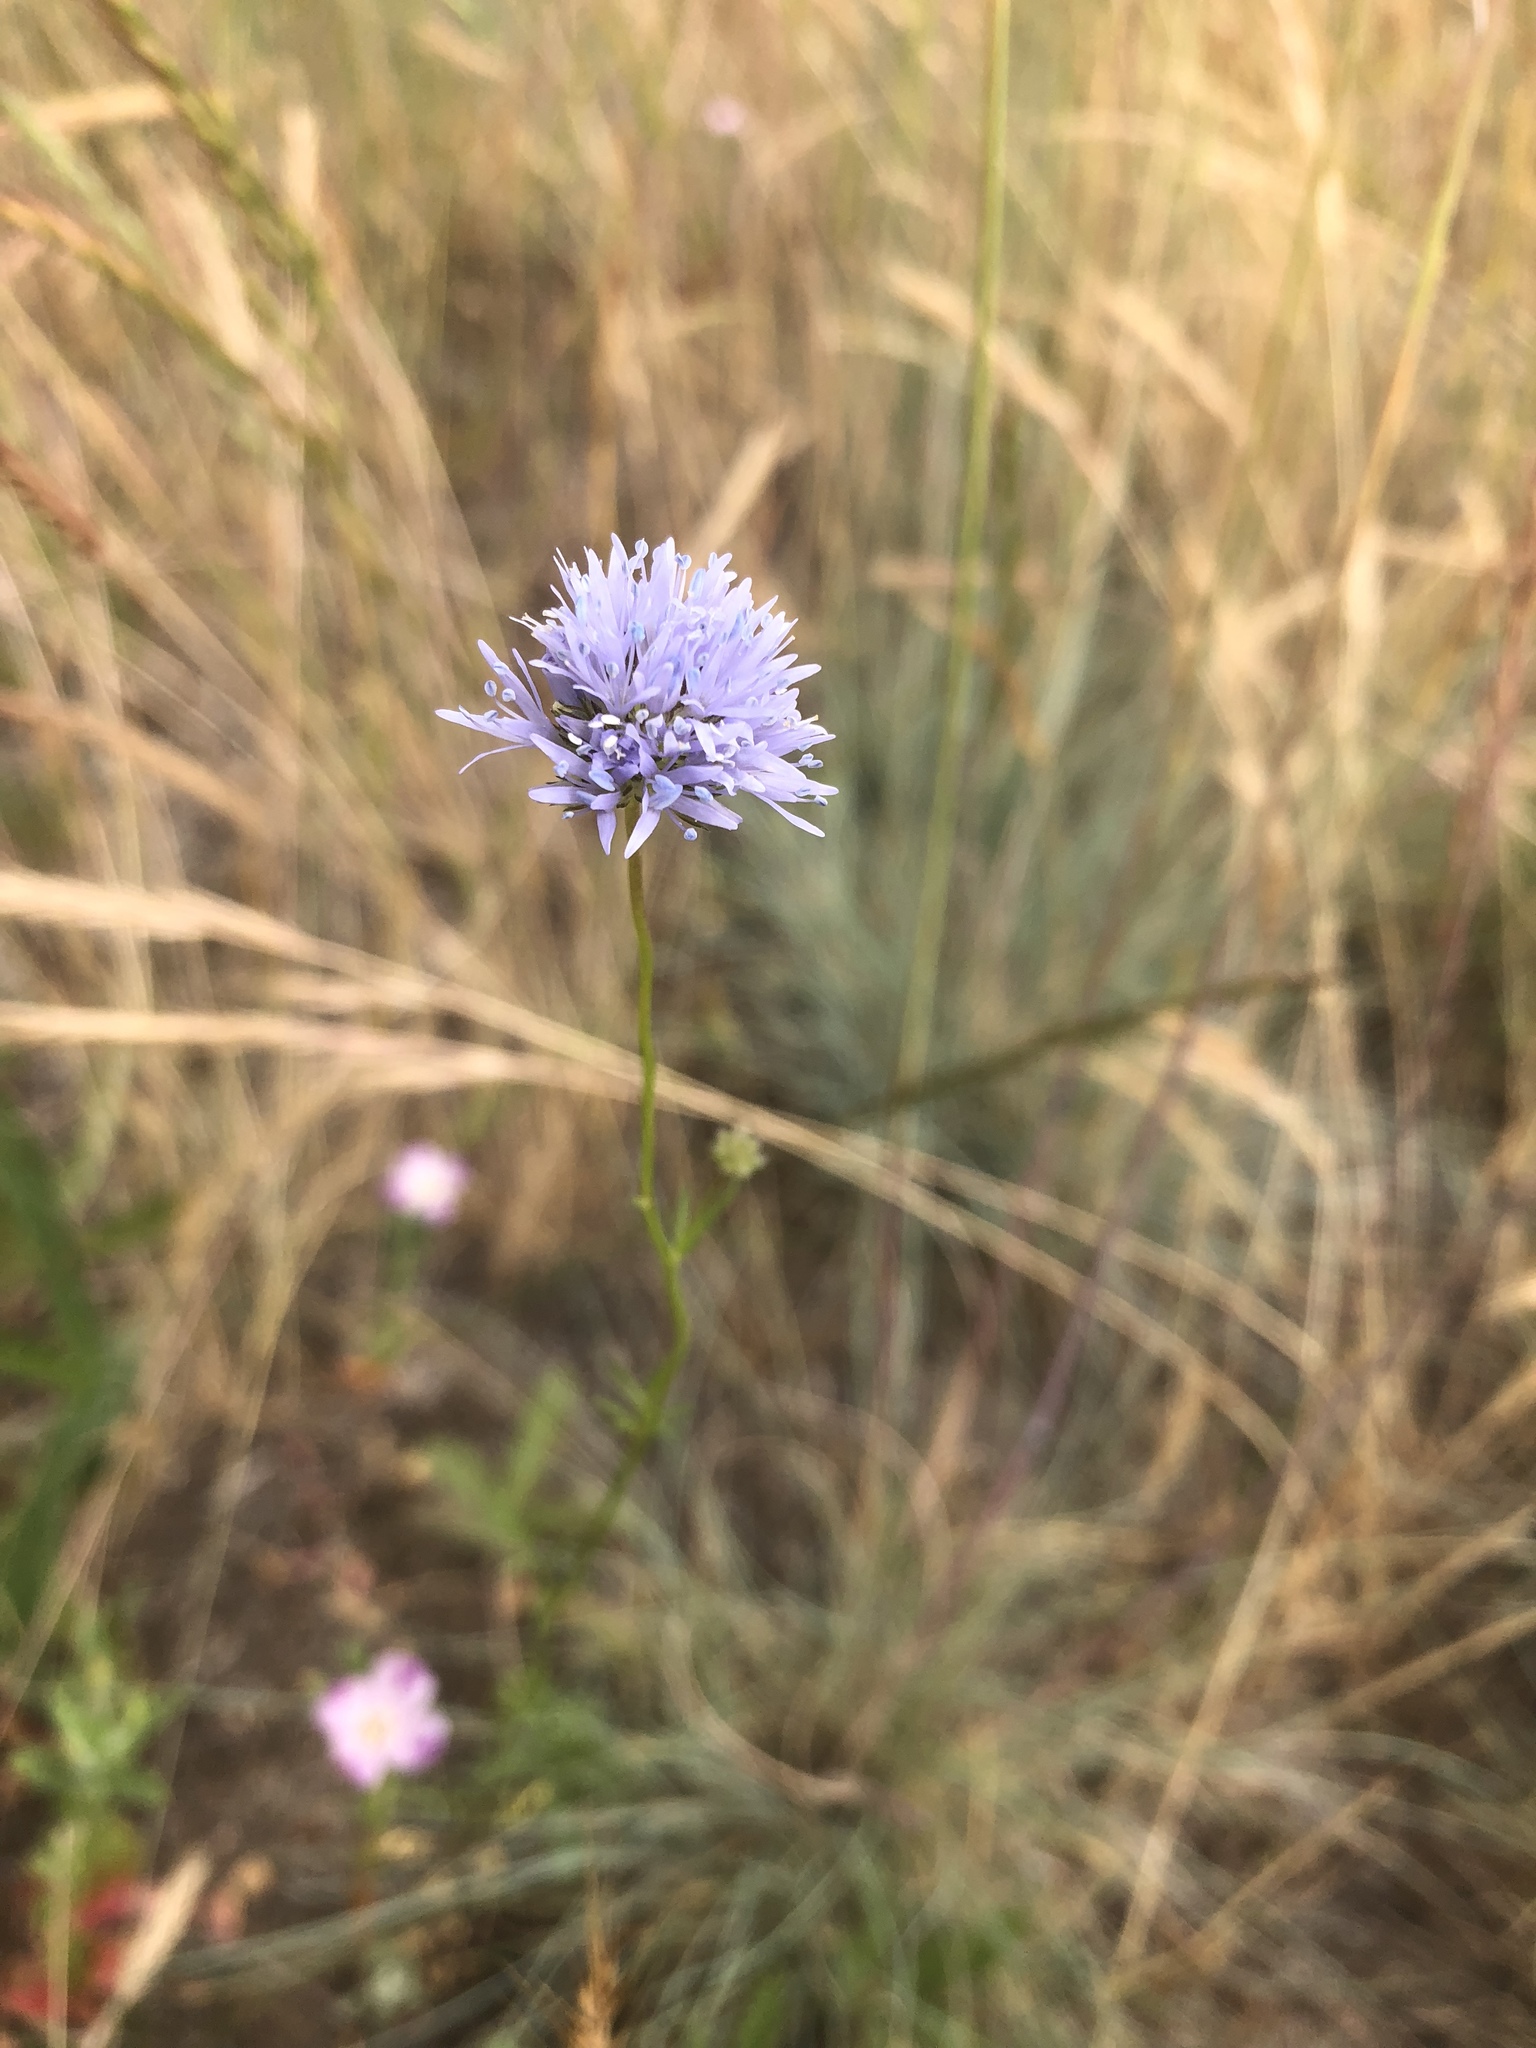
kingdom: Plantae
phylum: Tracheophyta
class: Magnoliopsida
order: Ericales
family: Polemoniaceae
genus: Gilia
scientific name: Gilia capitata
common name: Bluehead gilia
